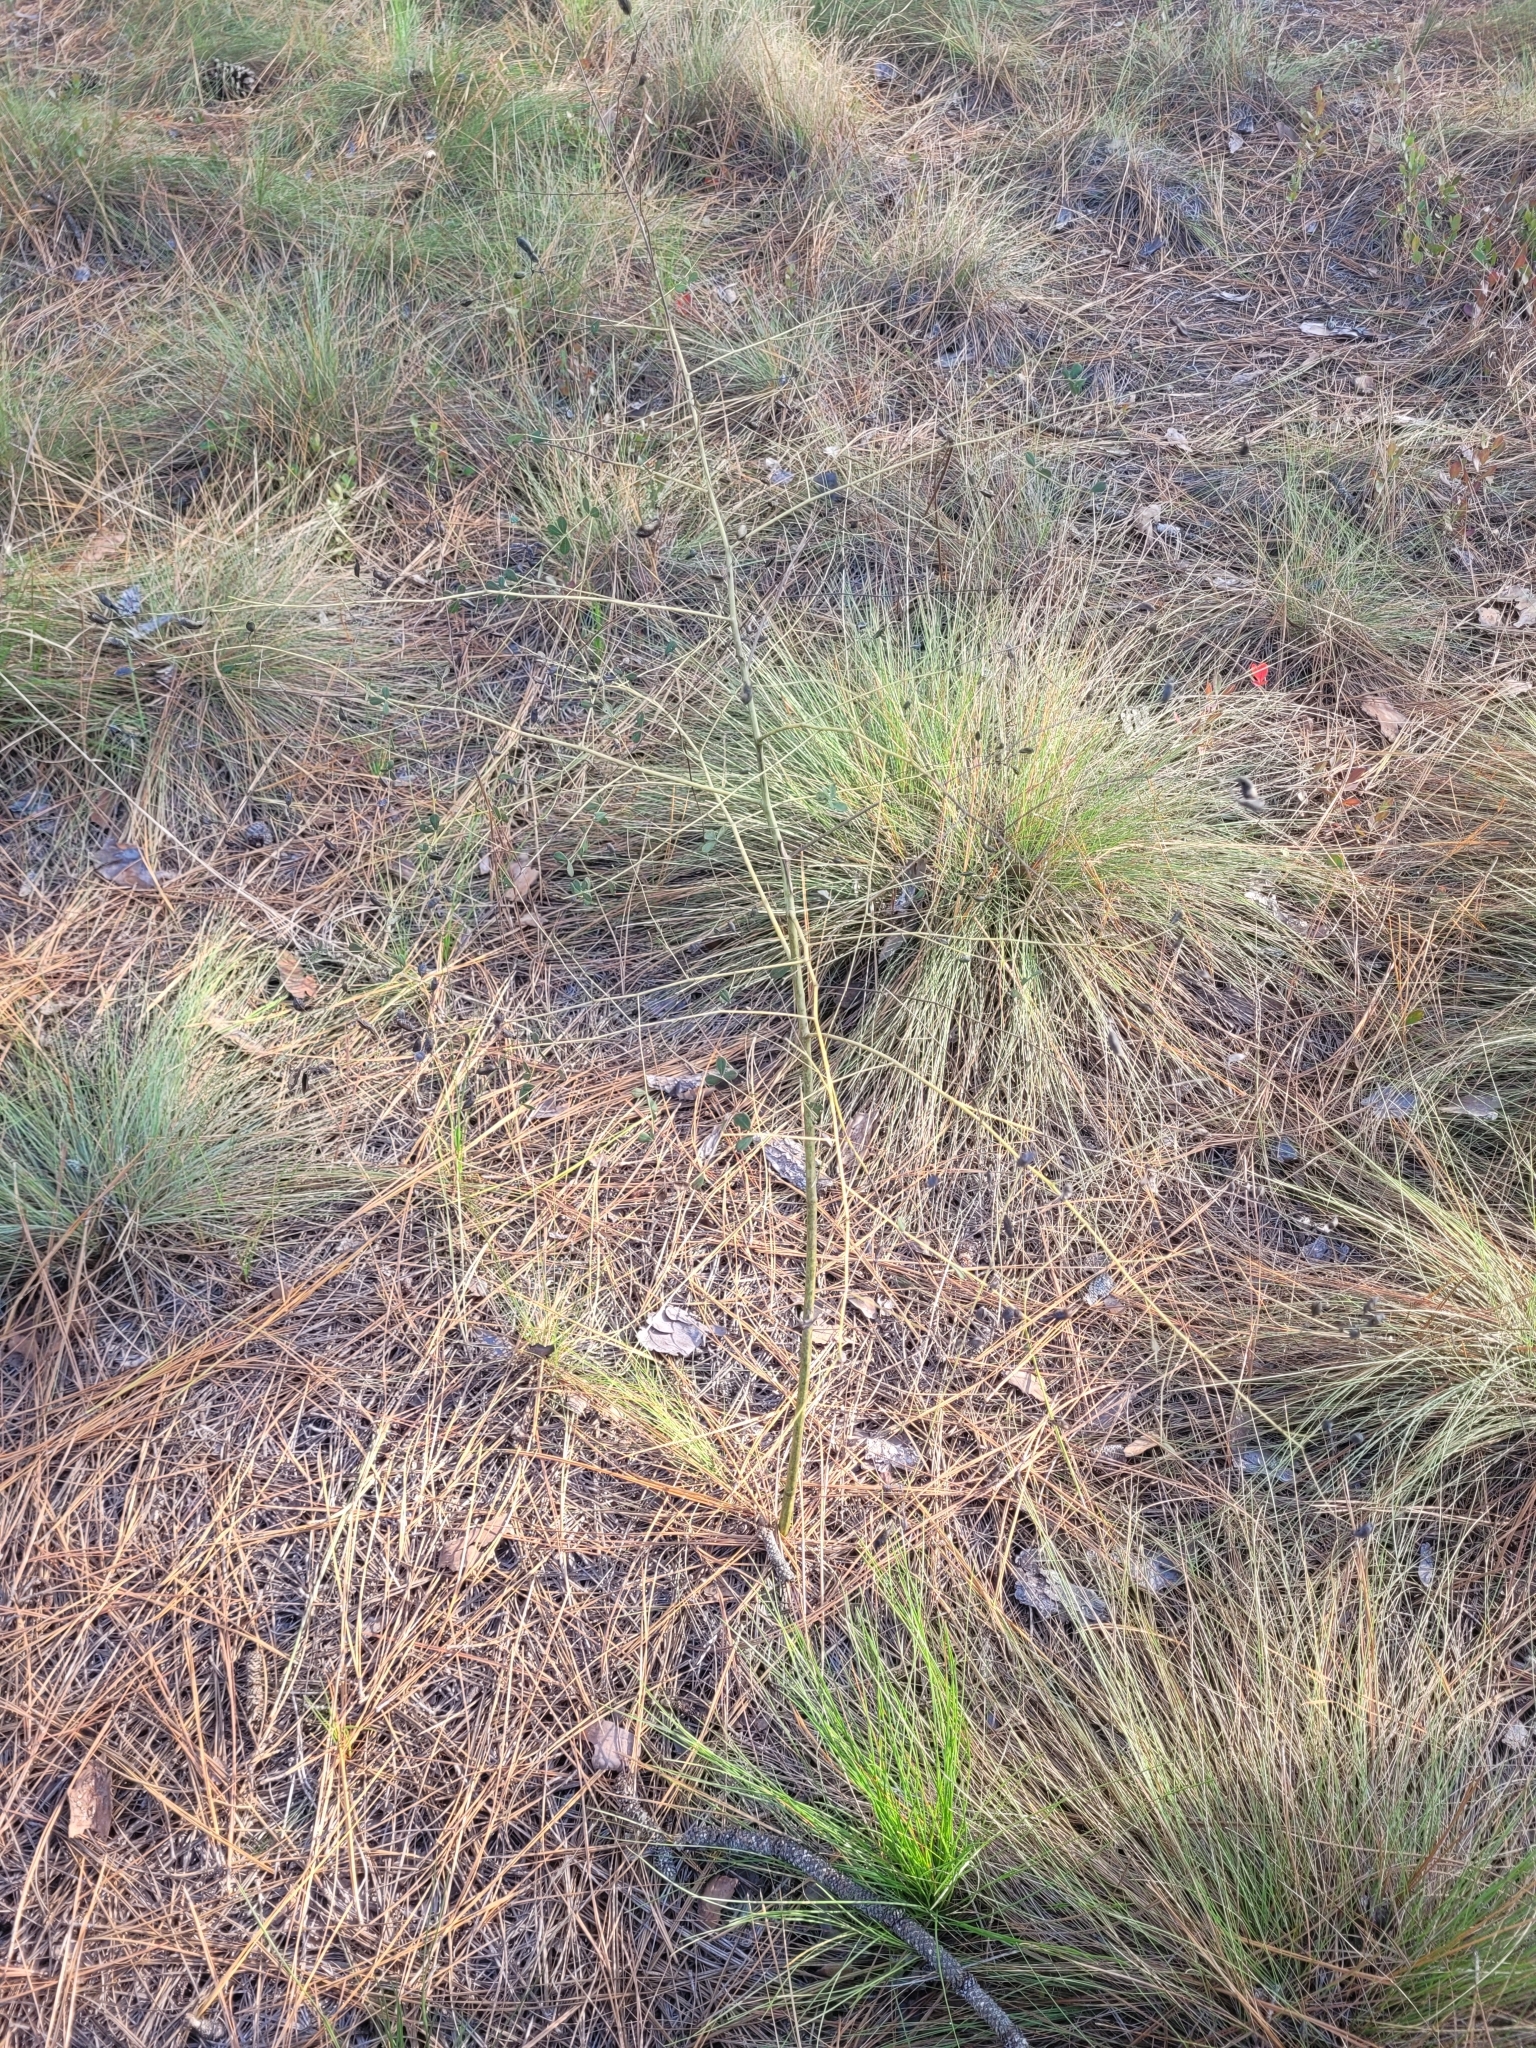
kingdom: Plantae
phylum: Tracheophyta
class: Magnoliopsida
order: Fabales
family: Fabaceae
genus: Baptisia
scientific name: Baptisia tinctoria
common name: Wild indigo
